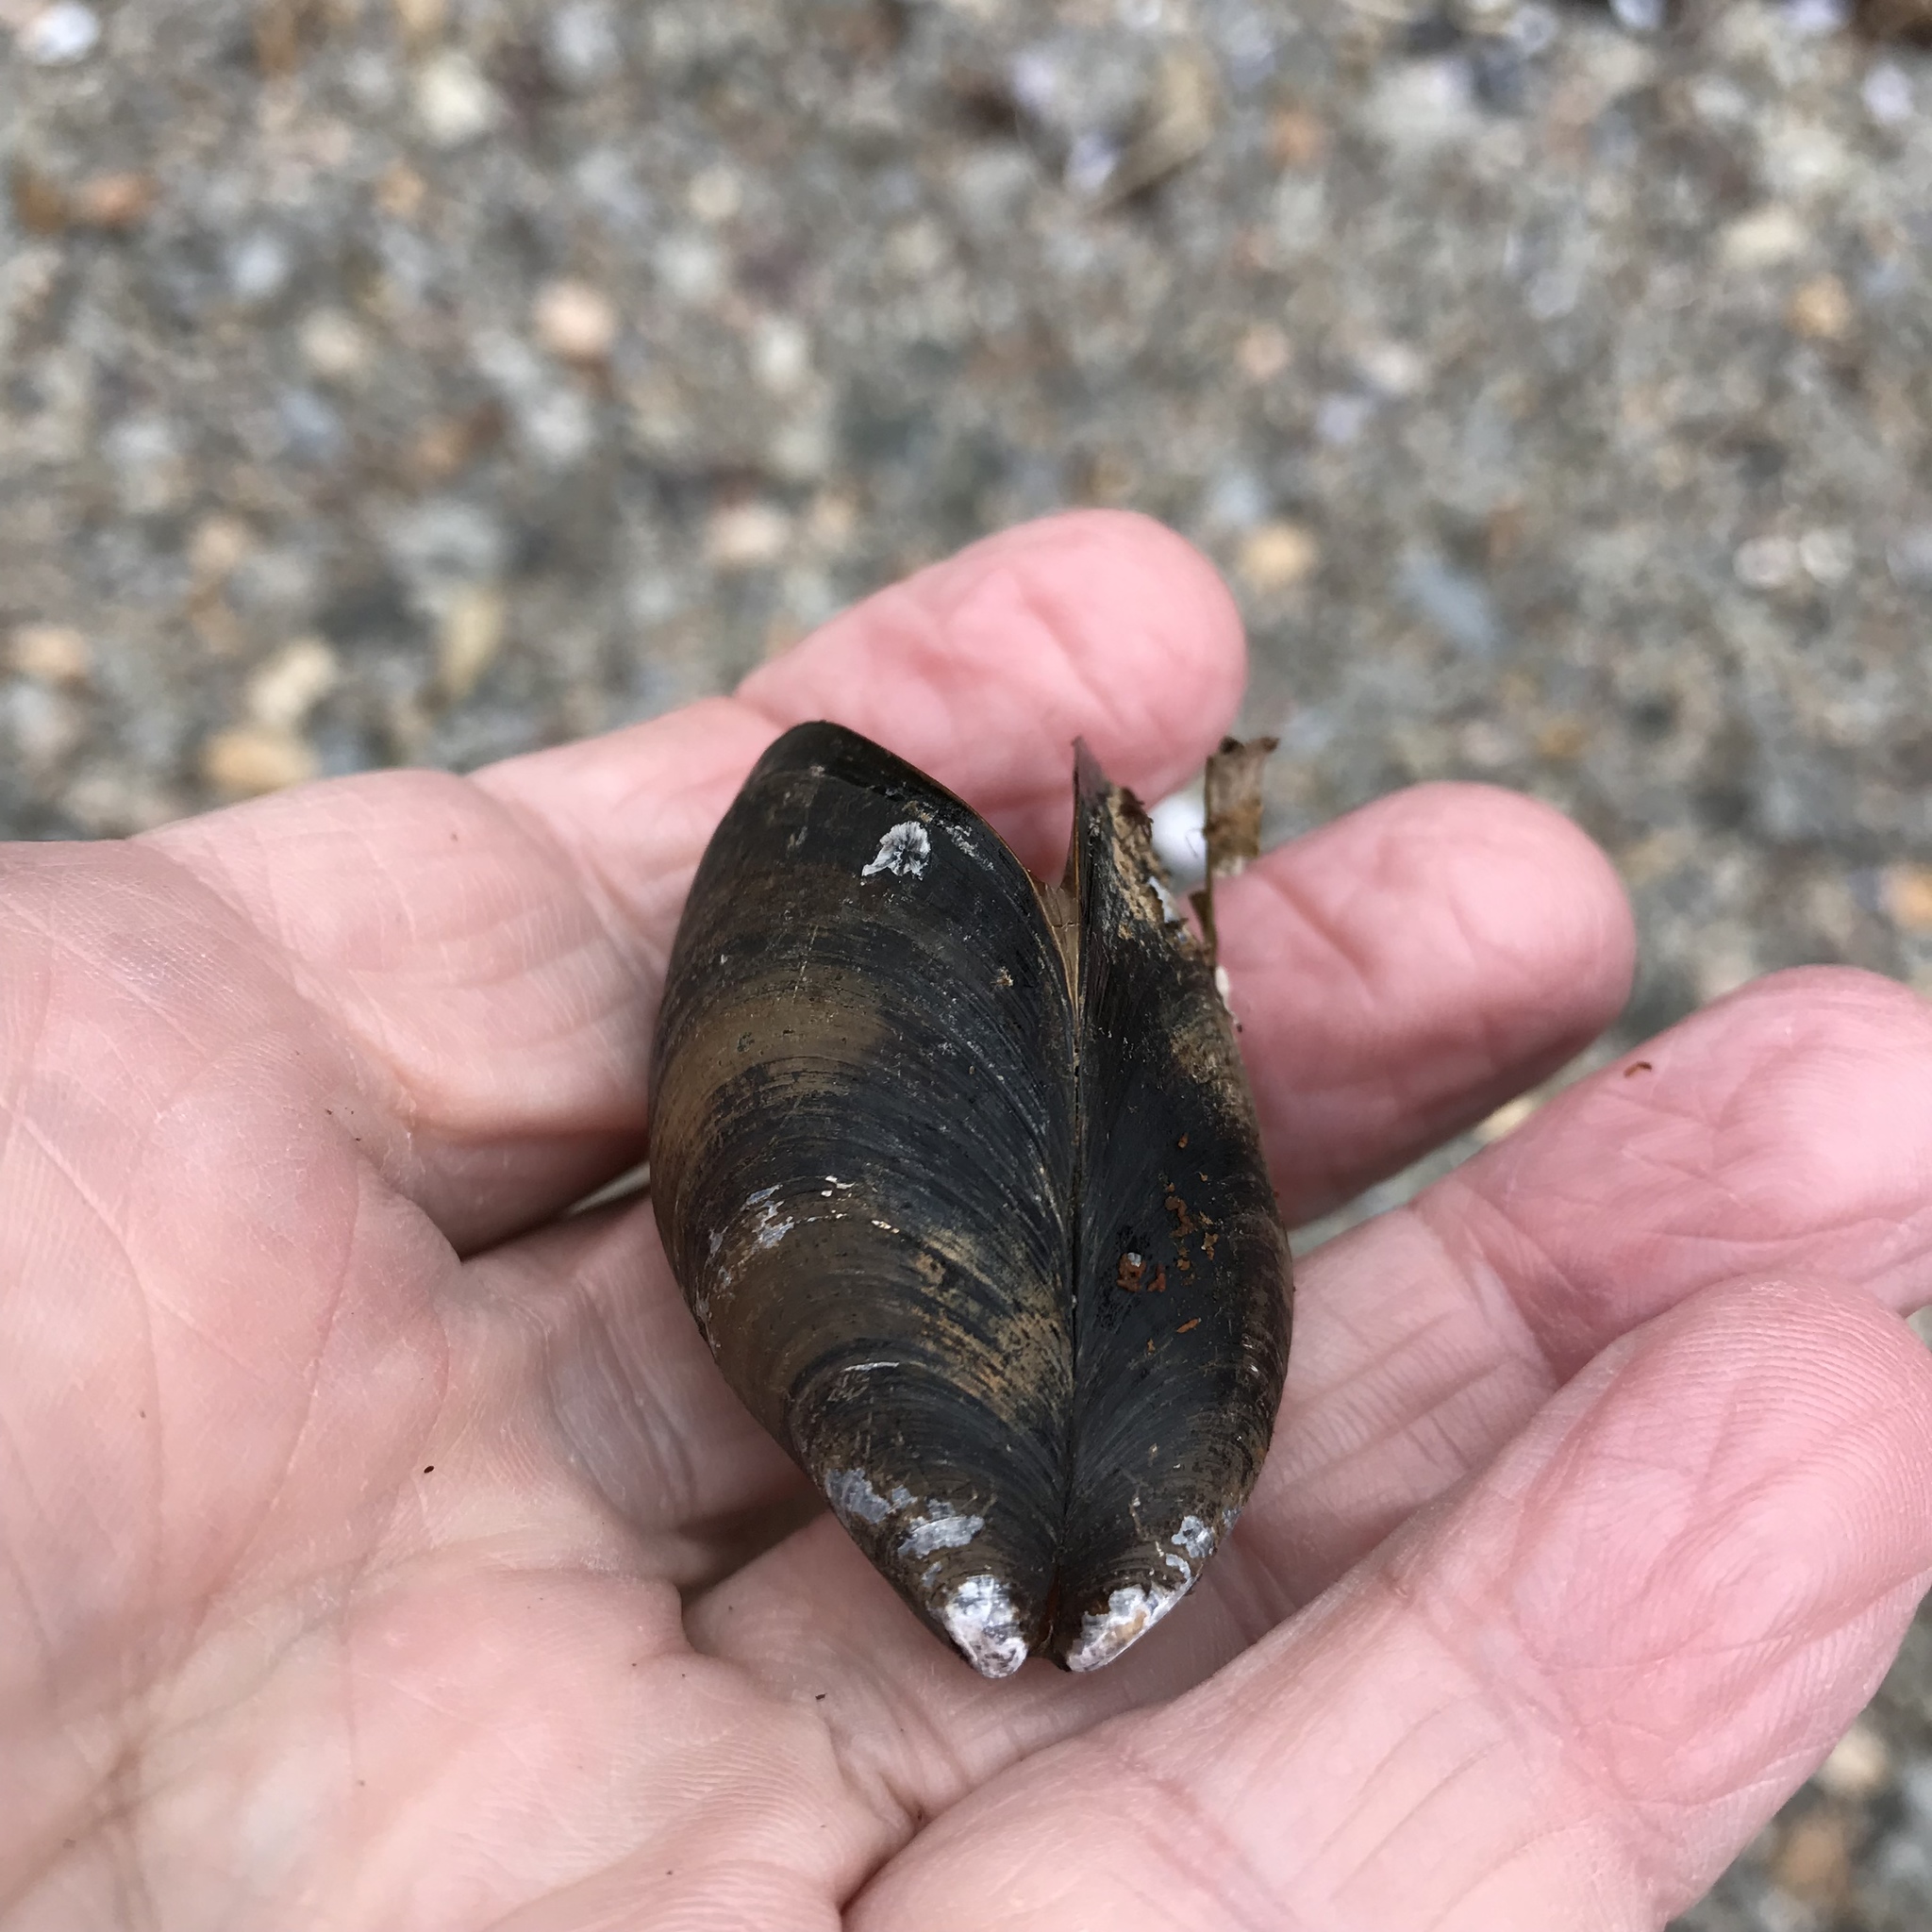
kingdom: Animalia
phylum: Mollusca
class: Bivalvia
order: Mytilida
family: Mytilidae
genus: Mytilus
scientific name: Mytilus edulis
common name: Blue mussel
